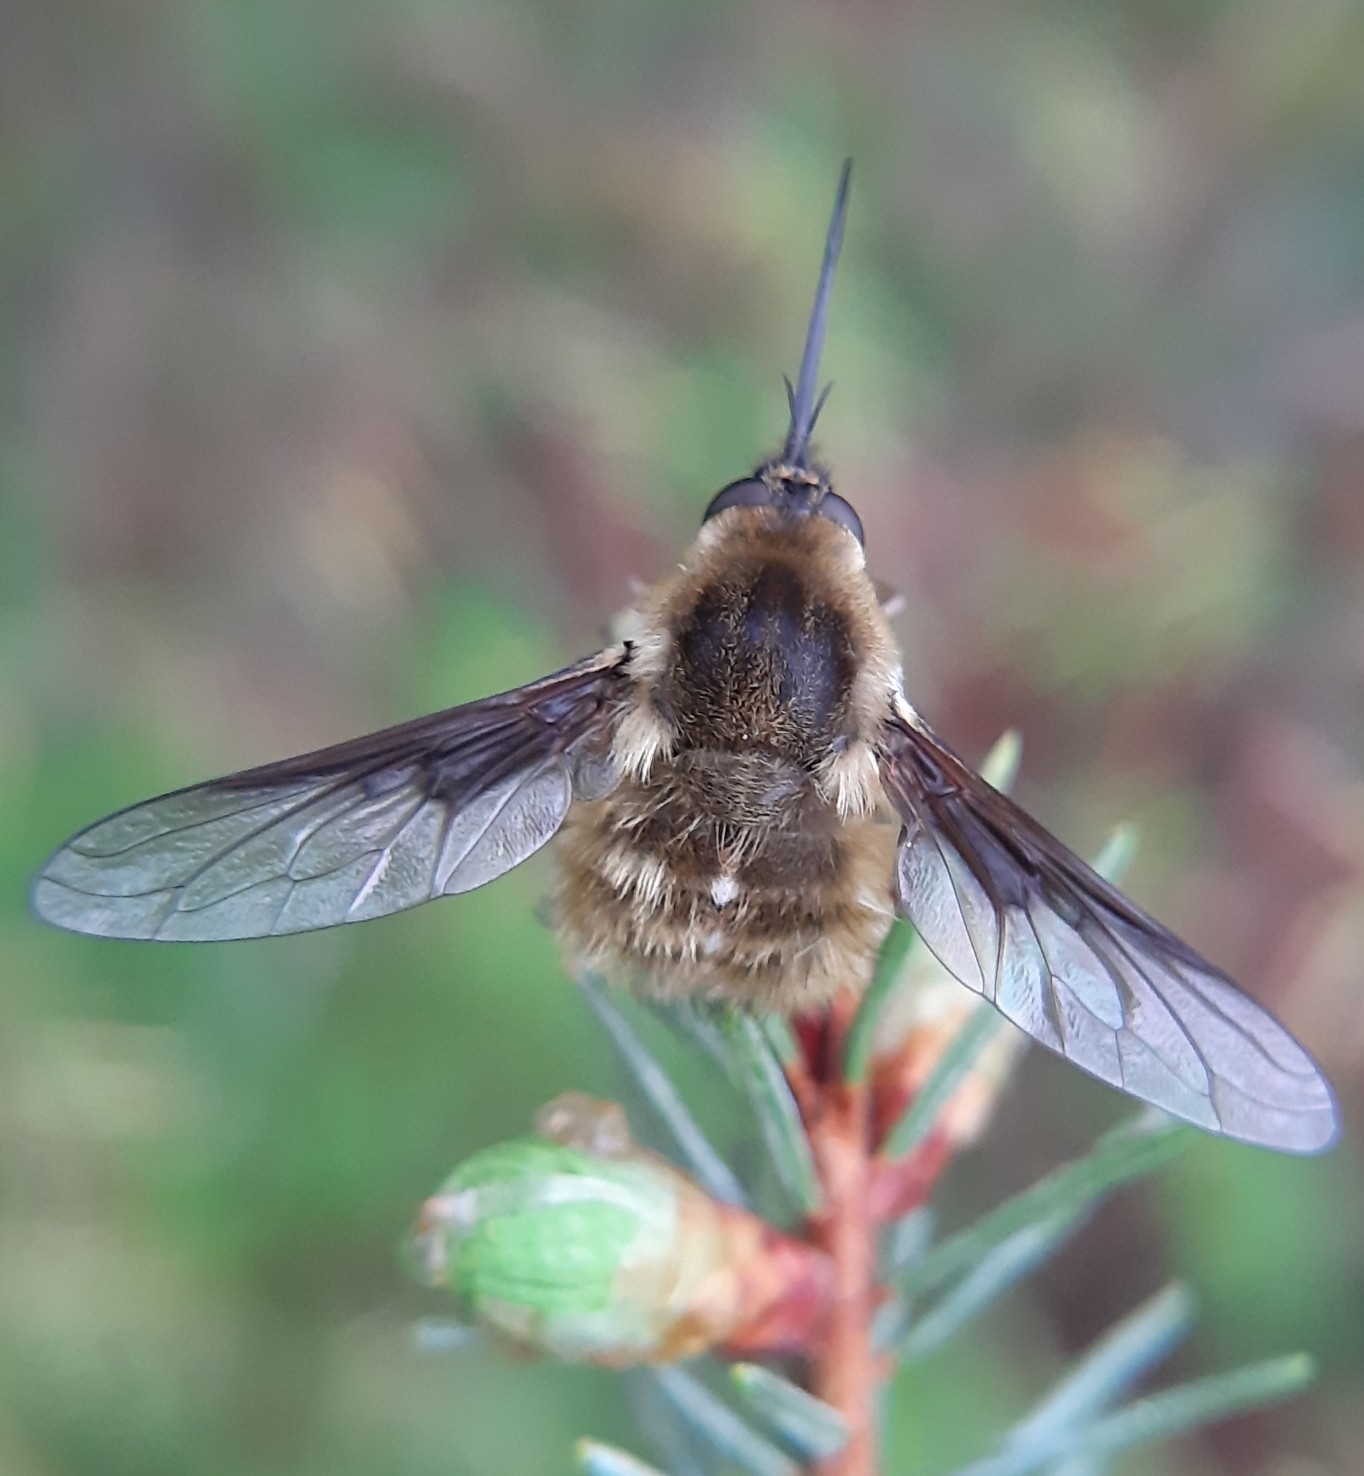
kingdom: Animalia
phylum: Arthropoda
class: Insecta
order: Diptera
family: Bombyliidae
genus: Bombylius
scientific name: Bombylius mexicanus
